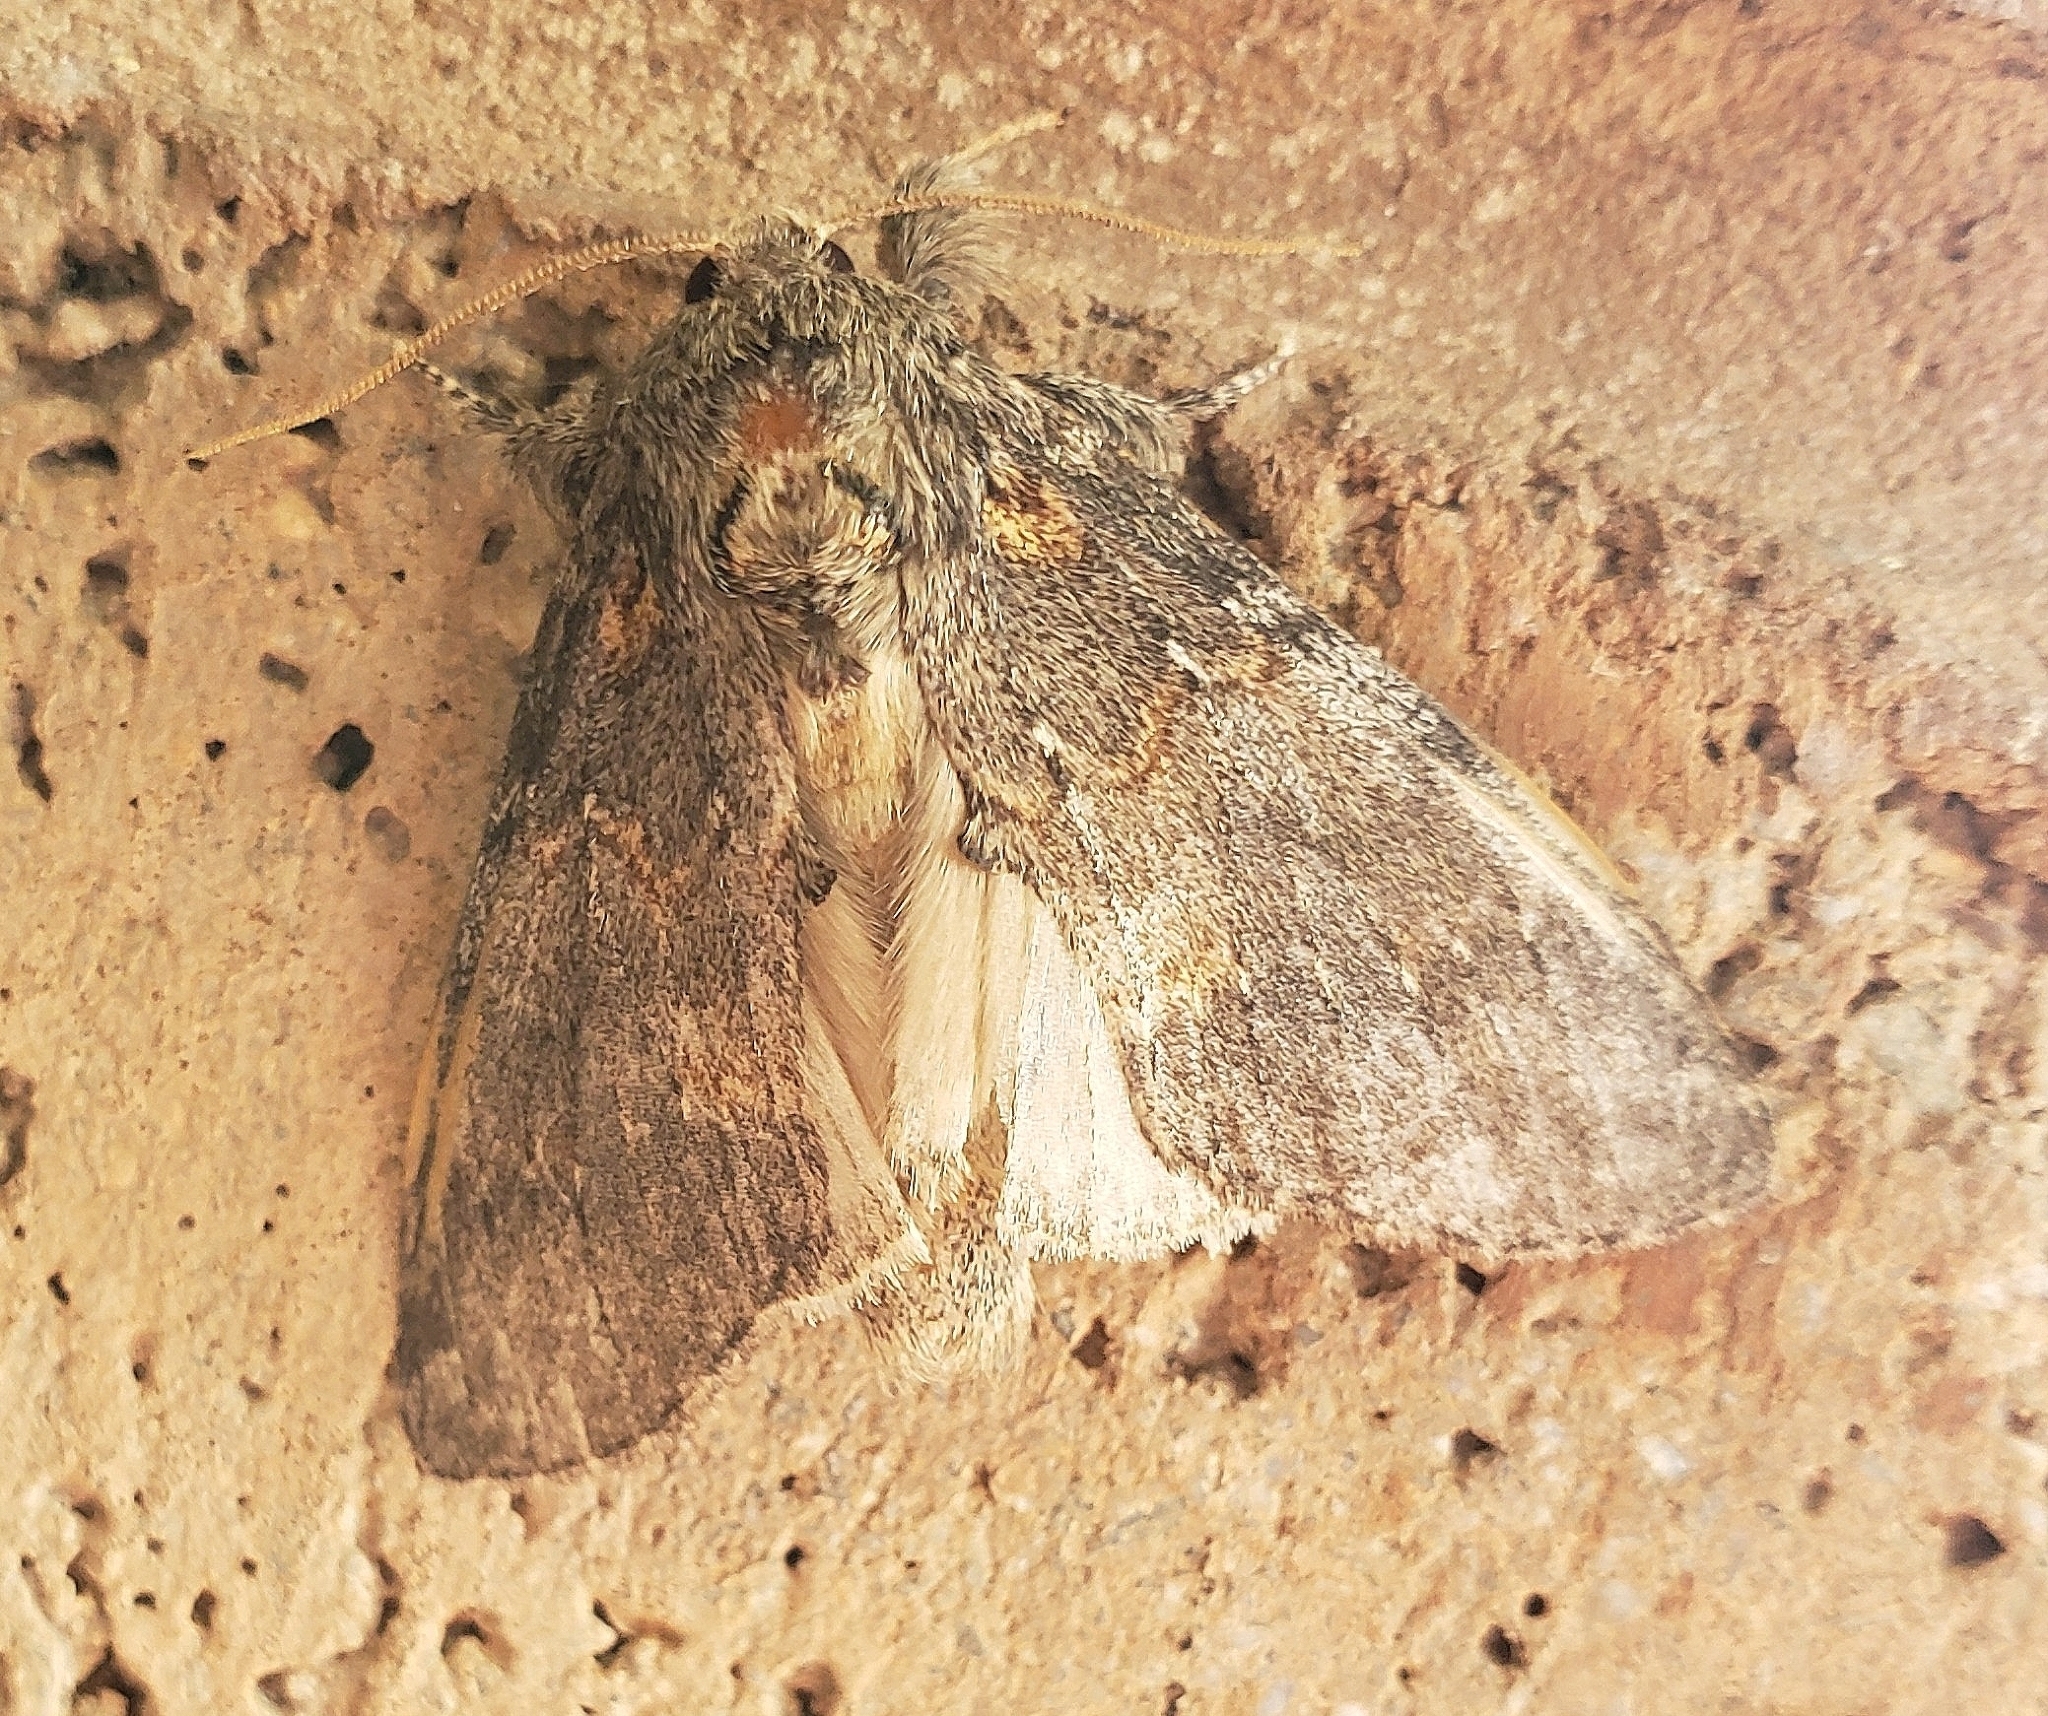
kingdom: Animalia
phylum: Arthropoda
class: Insecta
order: Lepidoptera
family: Notodontidae
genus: Peridea
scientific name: Peridea angulosa
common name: Angulose prominent
